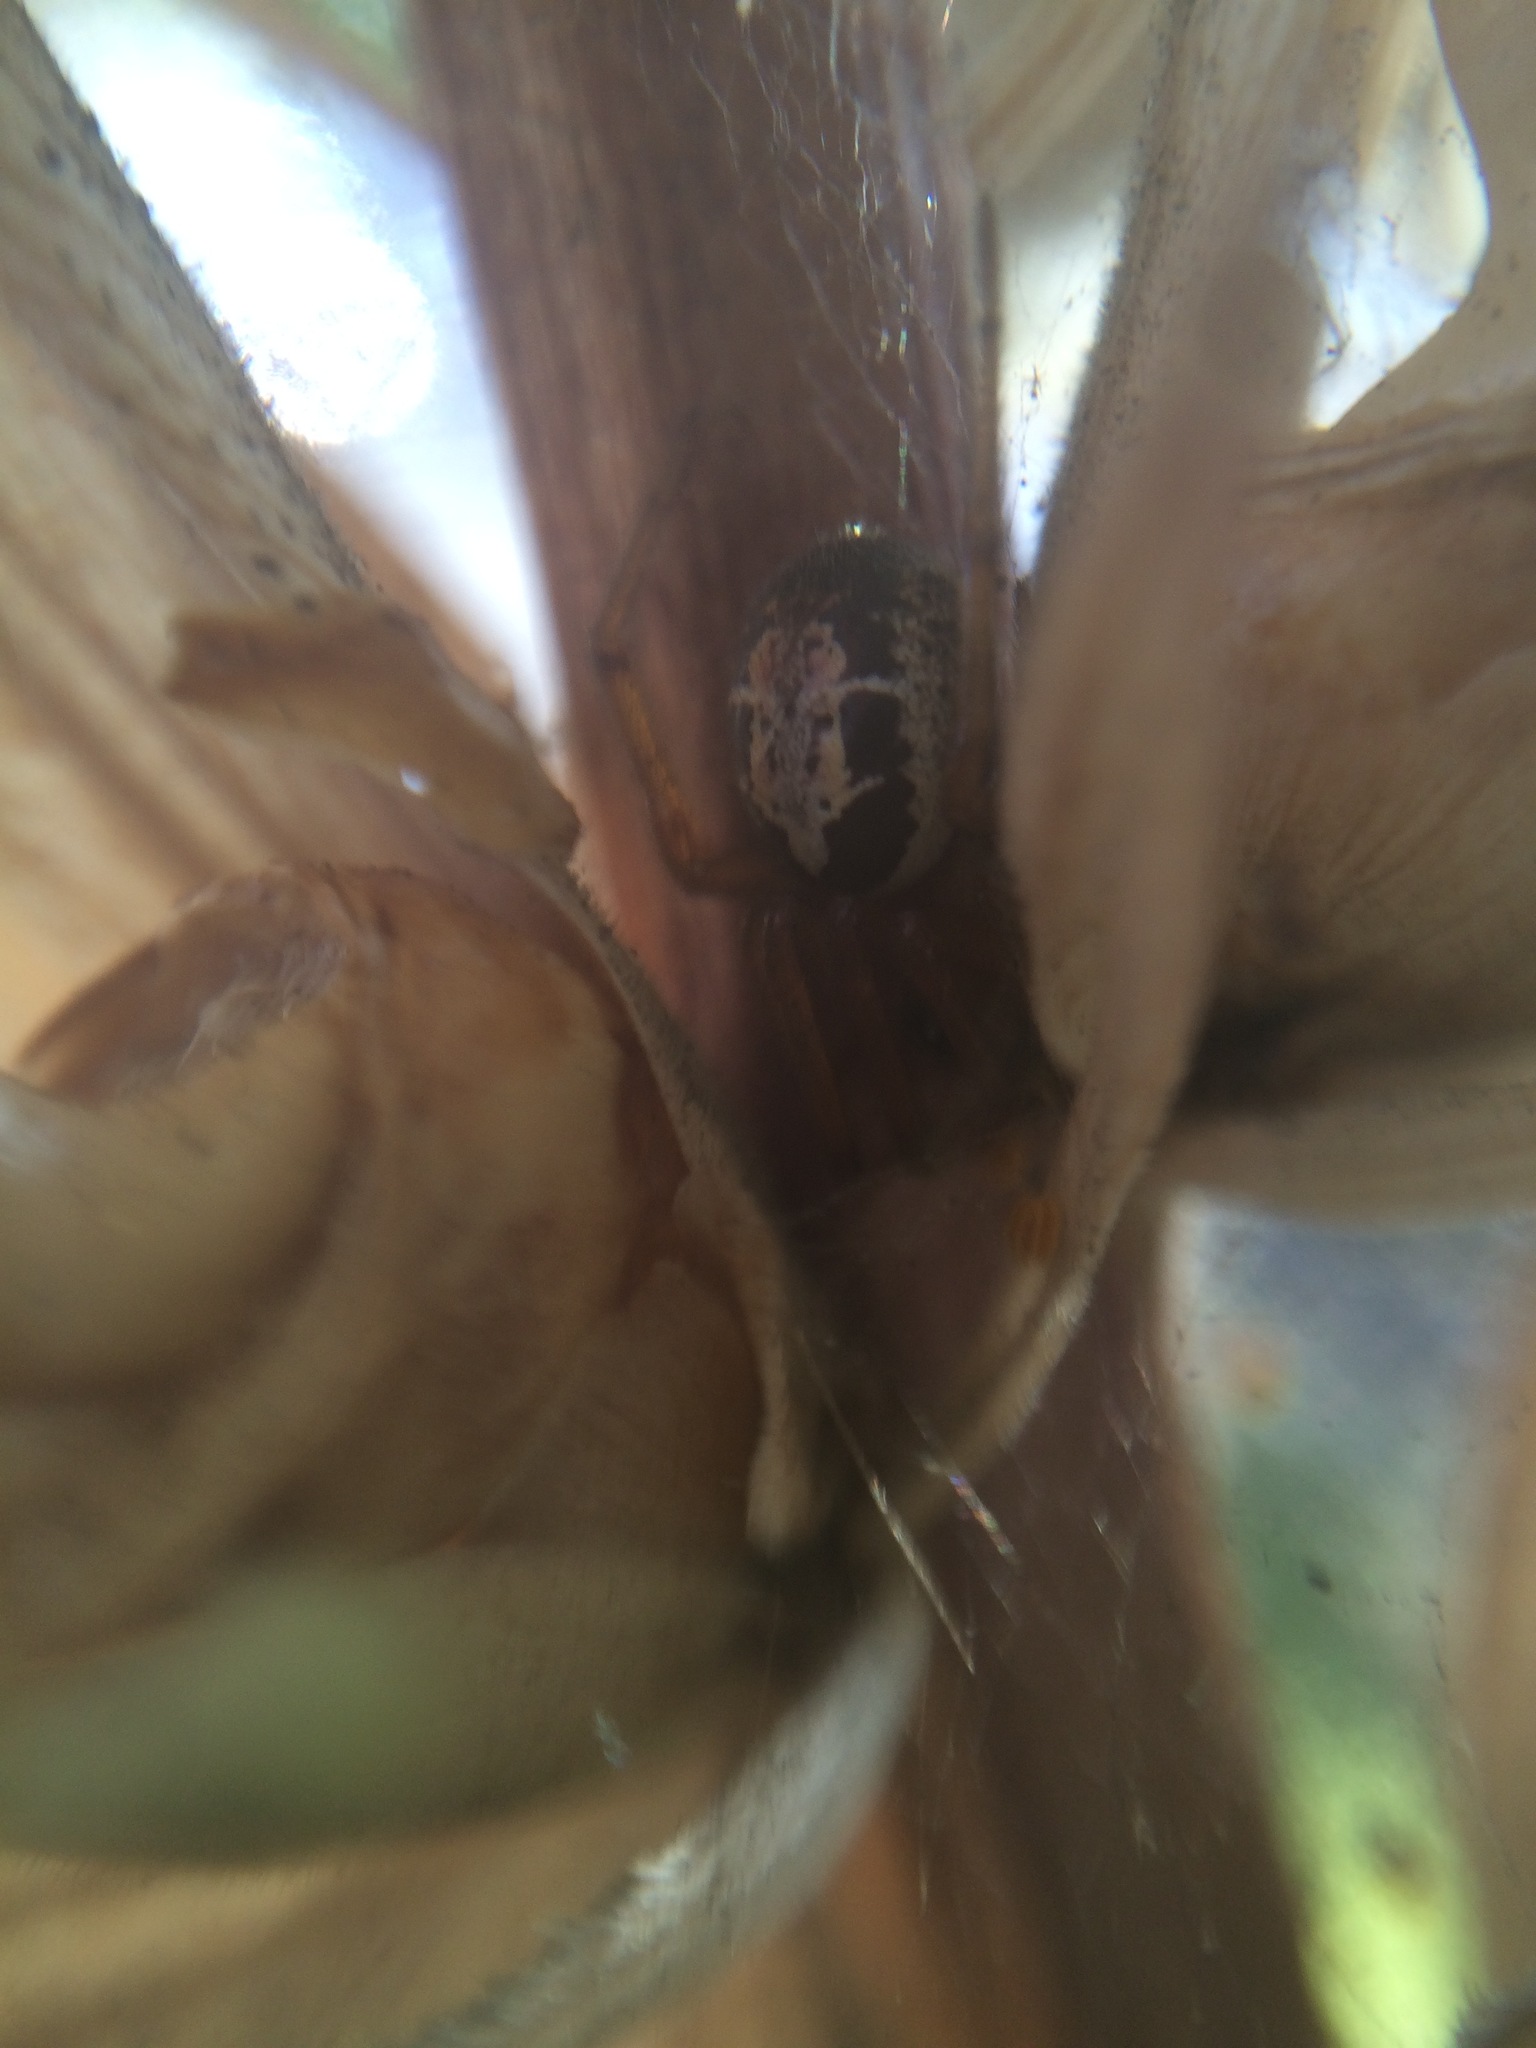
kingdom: Animalia
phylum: Arthropoda
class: Arachnida
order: Araneae
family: Theridiidae
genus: Steatoda
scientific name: Steatoda nobilis
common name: Cobweb weaver
